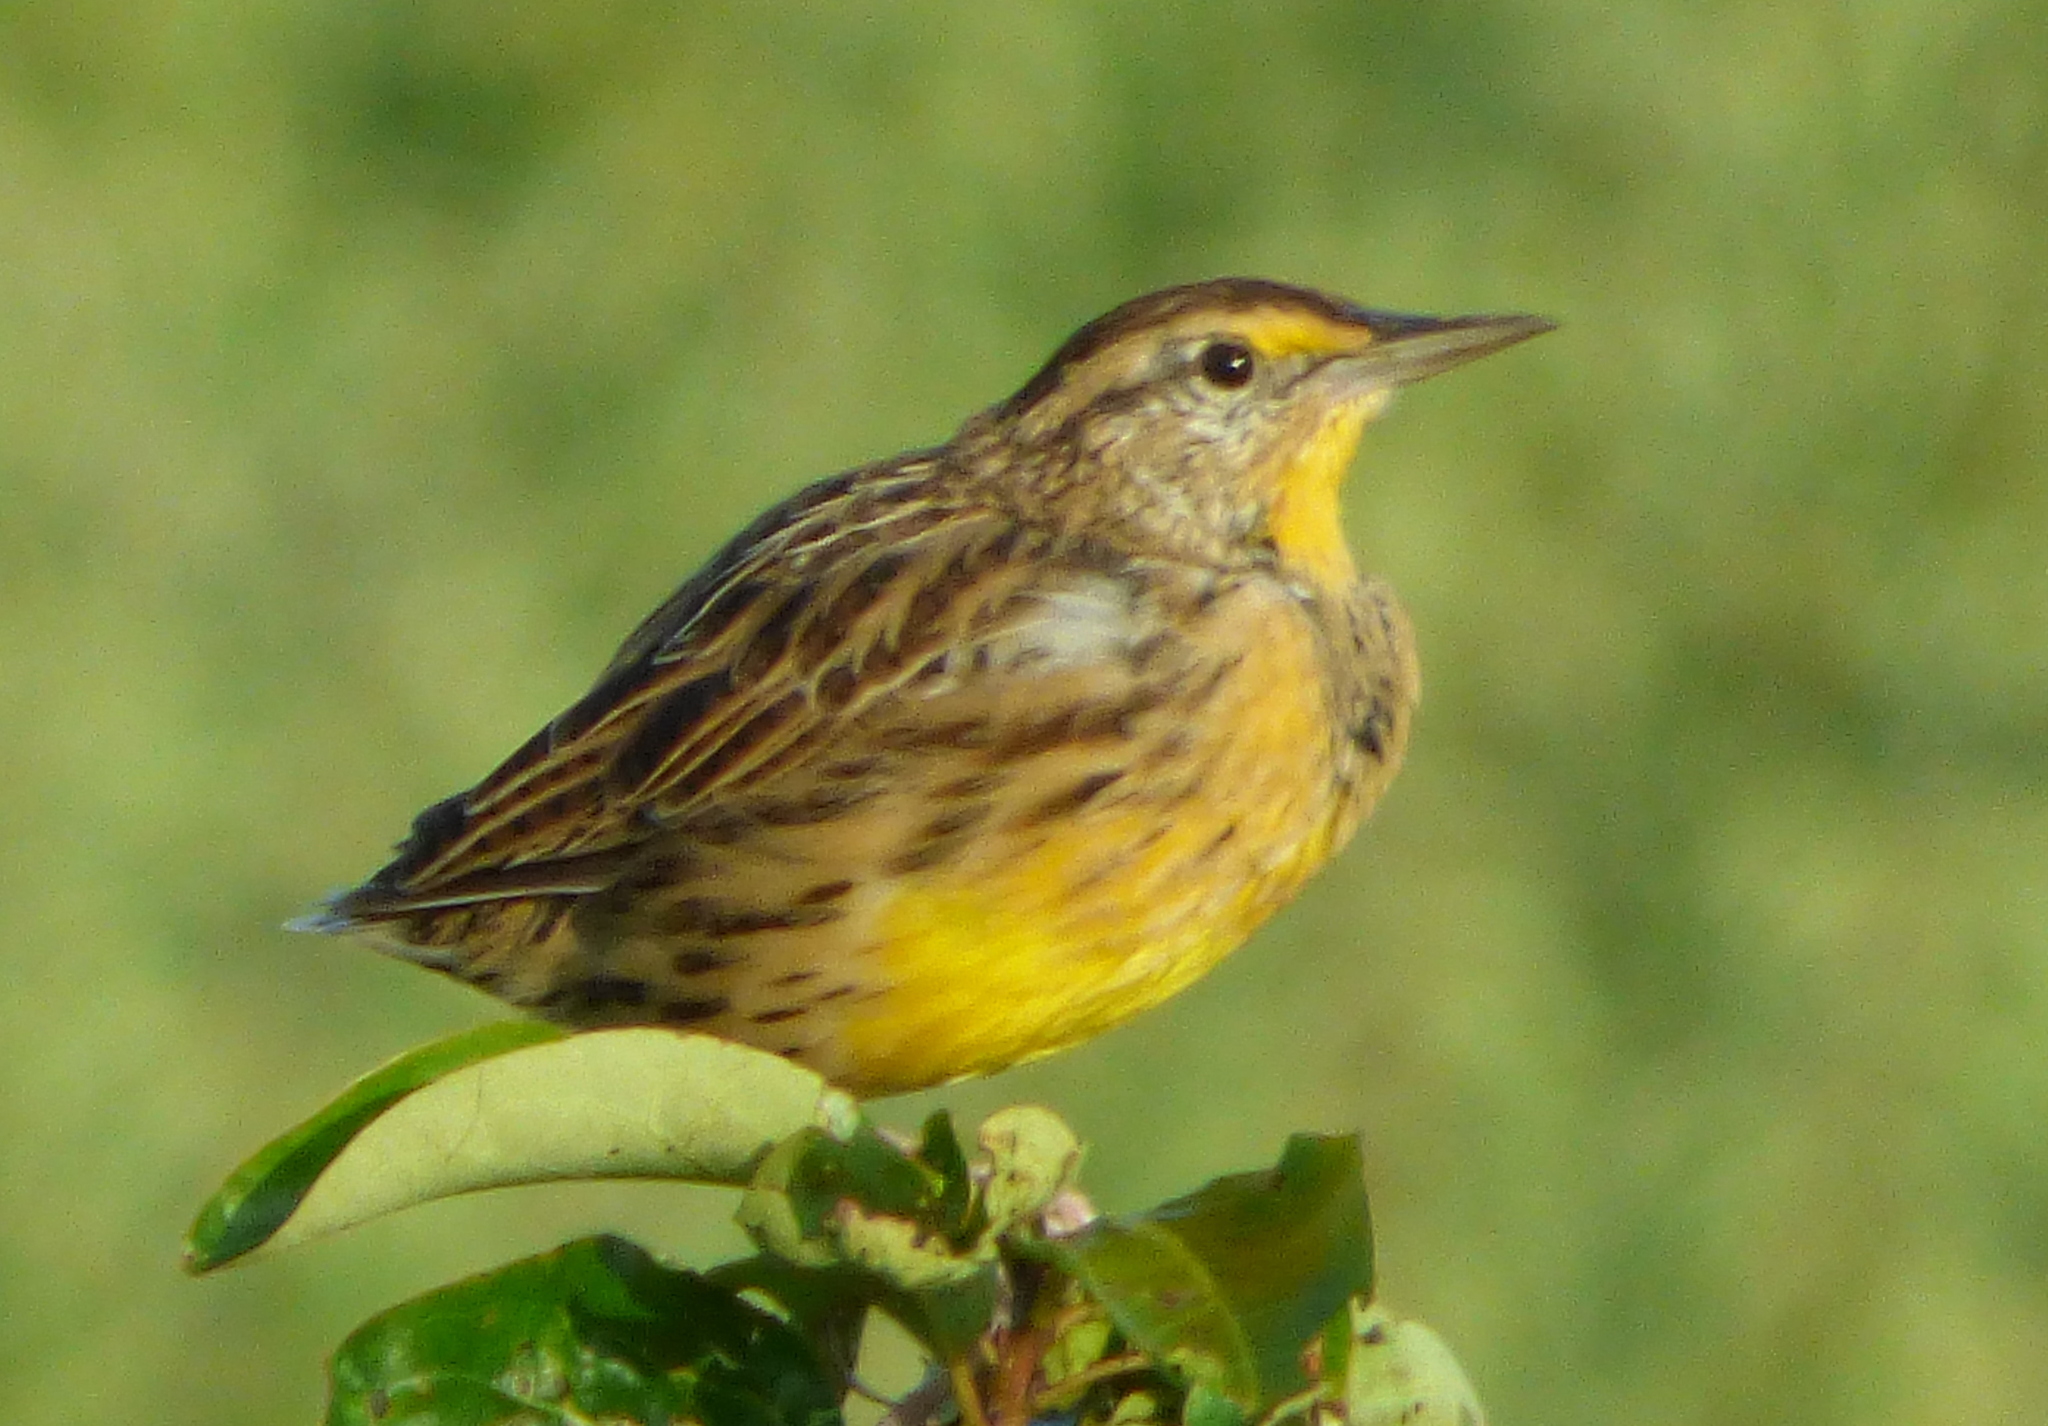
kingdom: Animalia
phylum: Chordata
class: Aves
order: Passeriformes
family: Icteridae
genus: Sturnella
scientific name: Sturnella magna
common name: Eastern meadowlark
